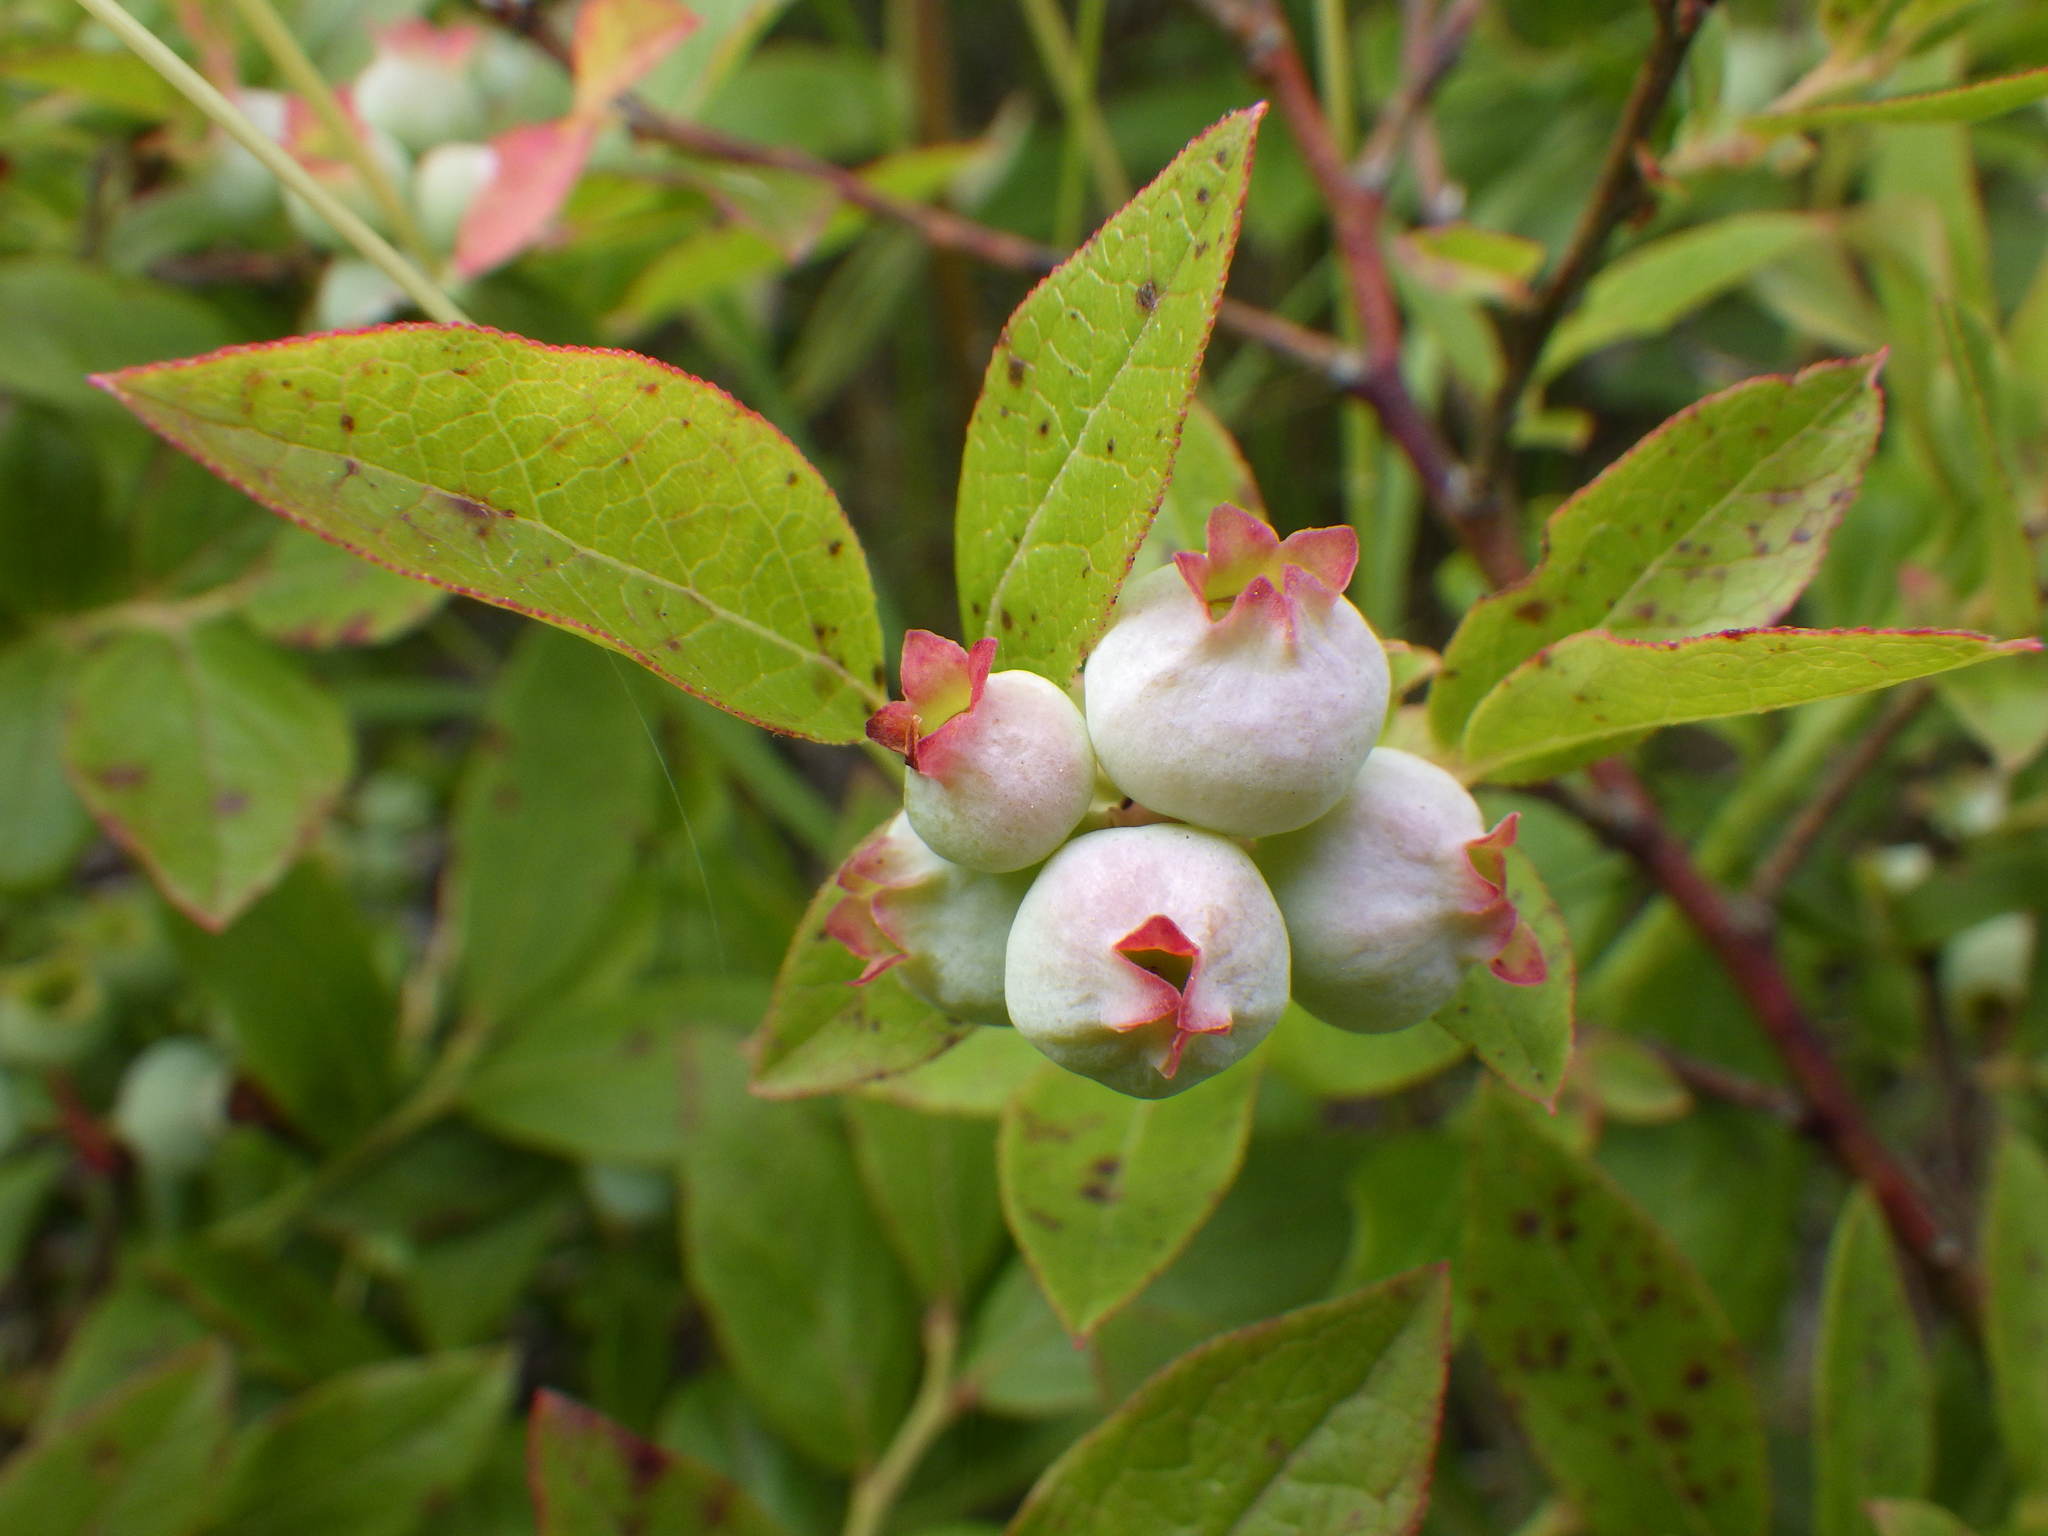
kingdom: Plantae
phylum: Tracheophyta
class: Magnoliopsida
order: Ericales
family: Ericaceae
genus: Vaccinium
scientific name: Vaccinium angustifolium
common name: Early lowbush blueberry
